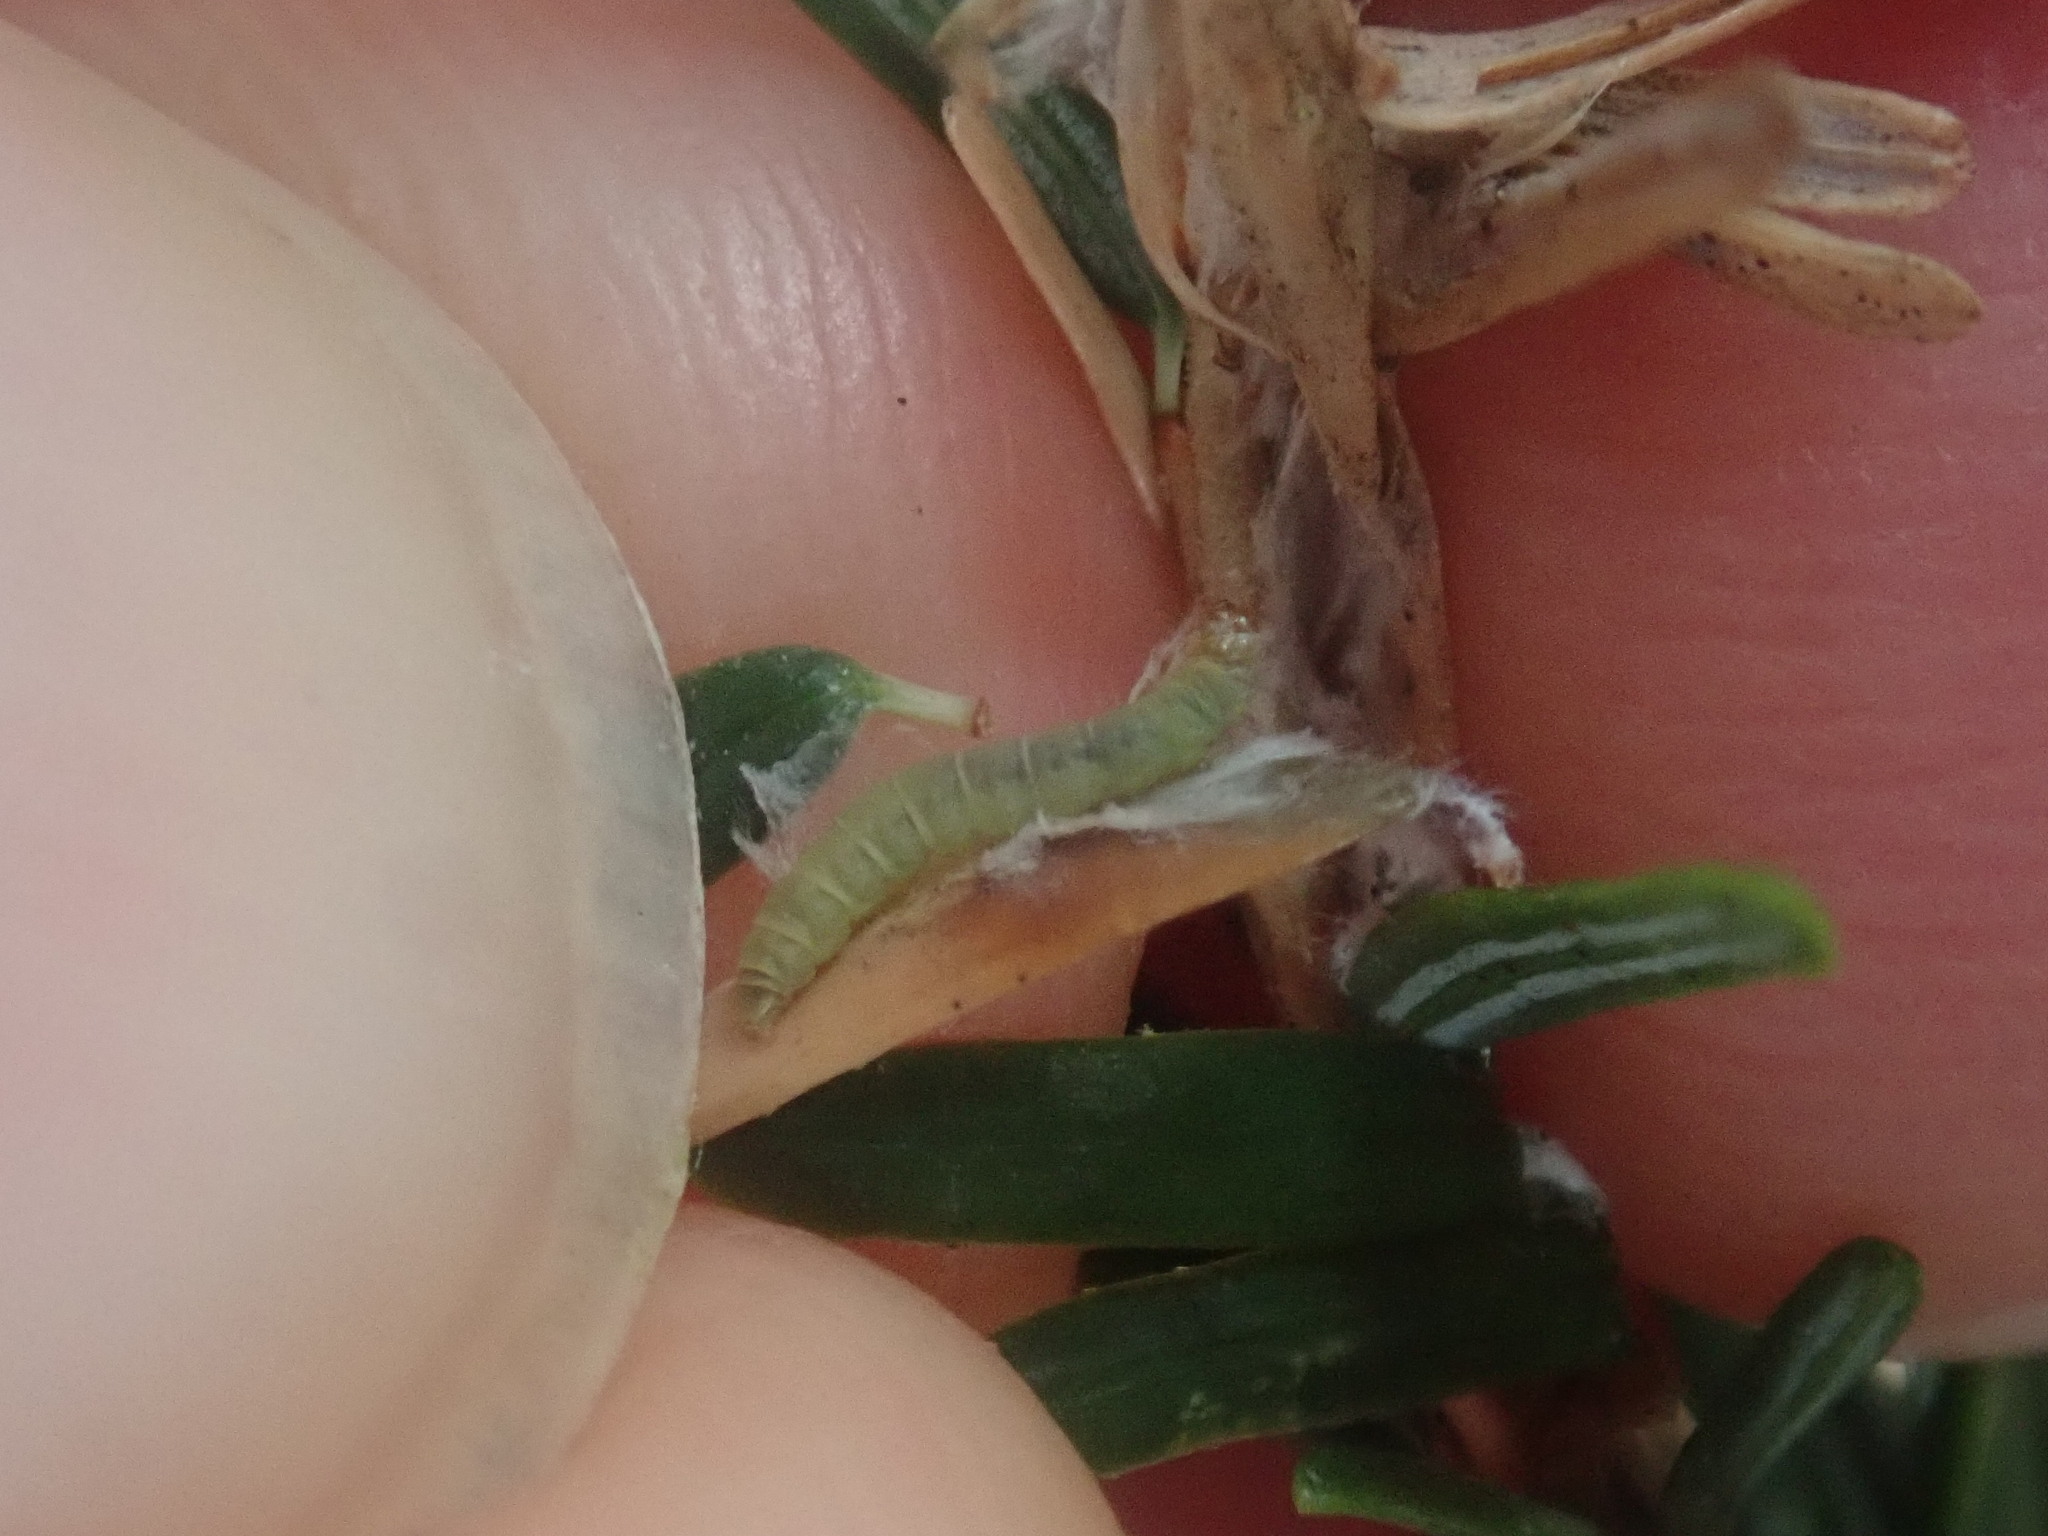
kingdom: Animalia
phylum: Arthropoda
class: Insecta
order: Lepidoptera
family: Gelechiidae
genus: Coleotechnites
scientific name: Coleotechnites apicitripunctella
